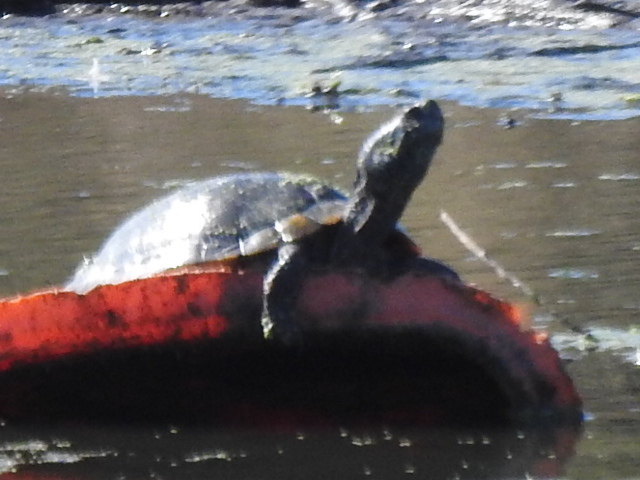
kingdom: Animalia
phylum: Chordata
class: Testudines
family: Emydidae
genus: Trachemys
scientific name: Trachemys scripta
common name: Slider
